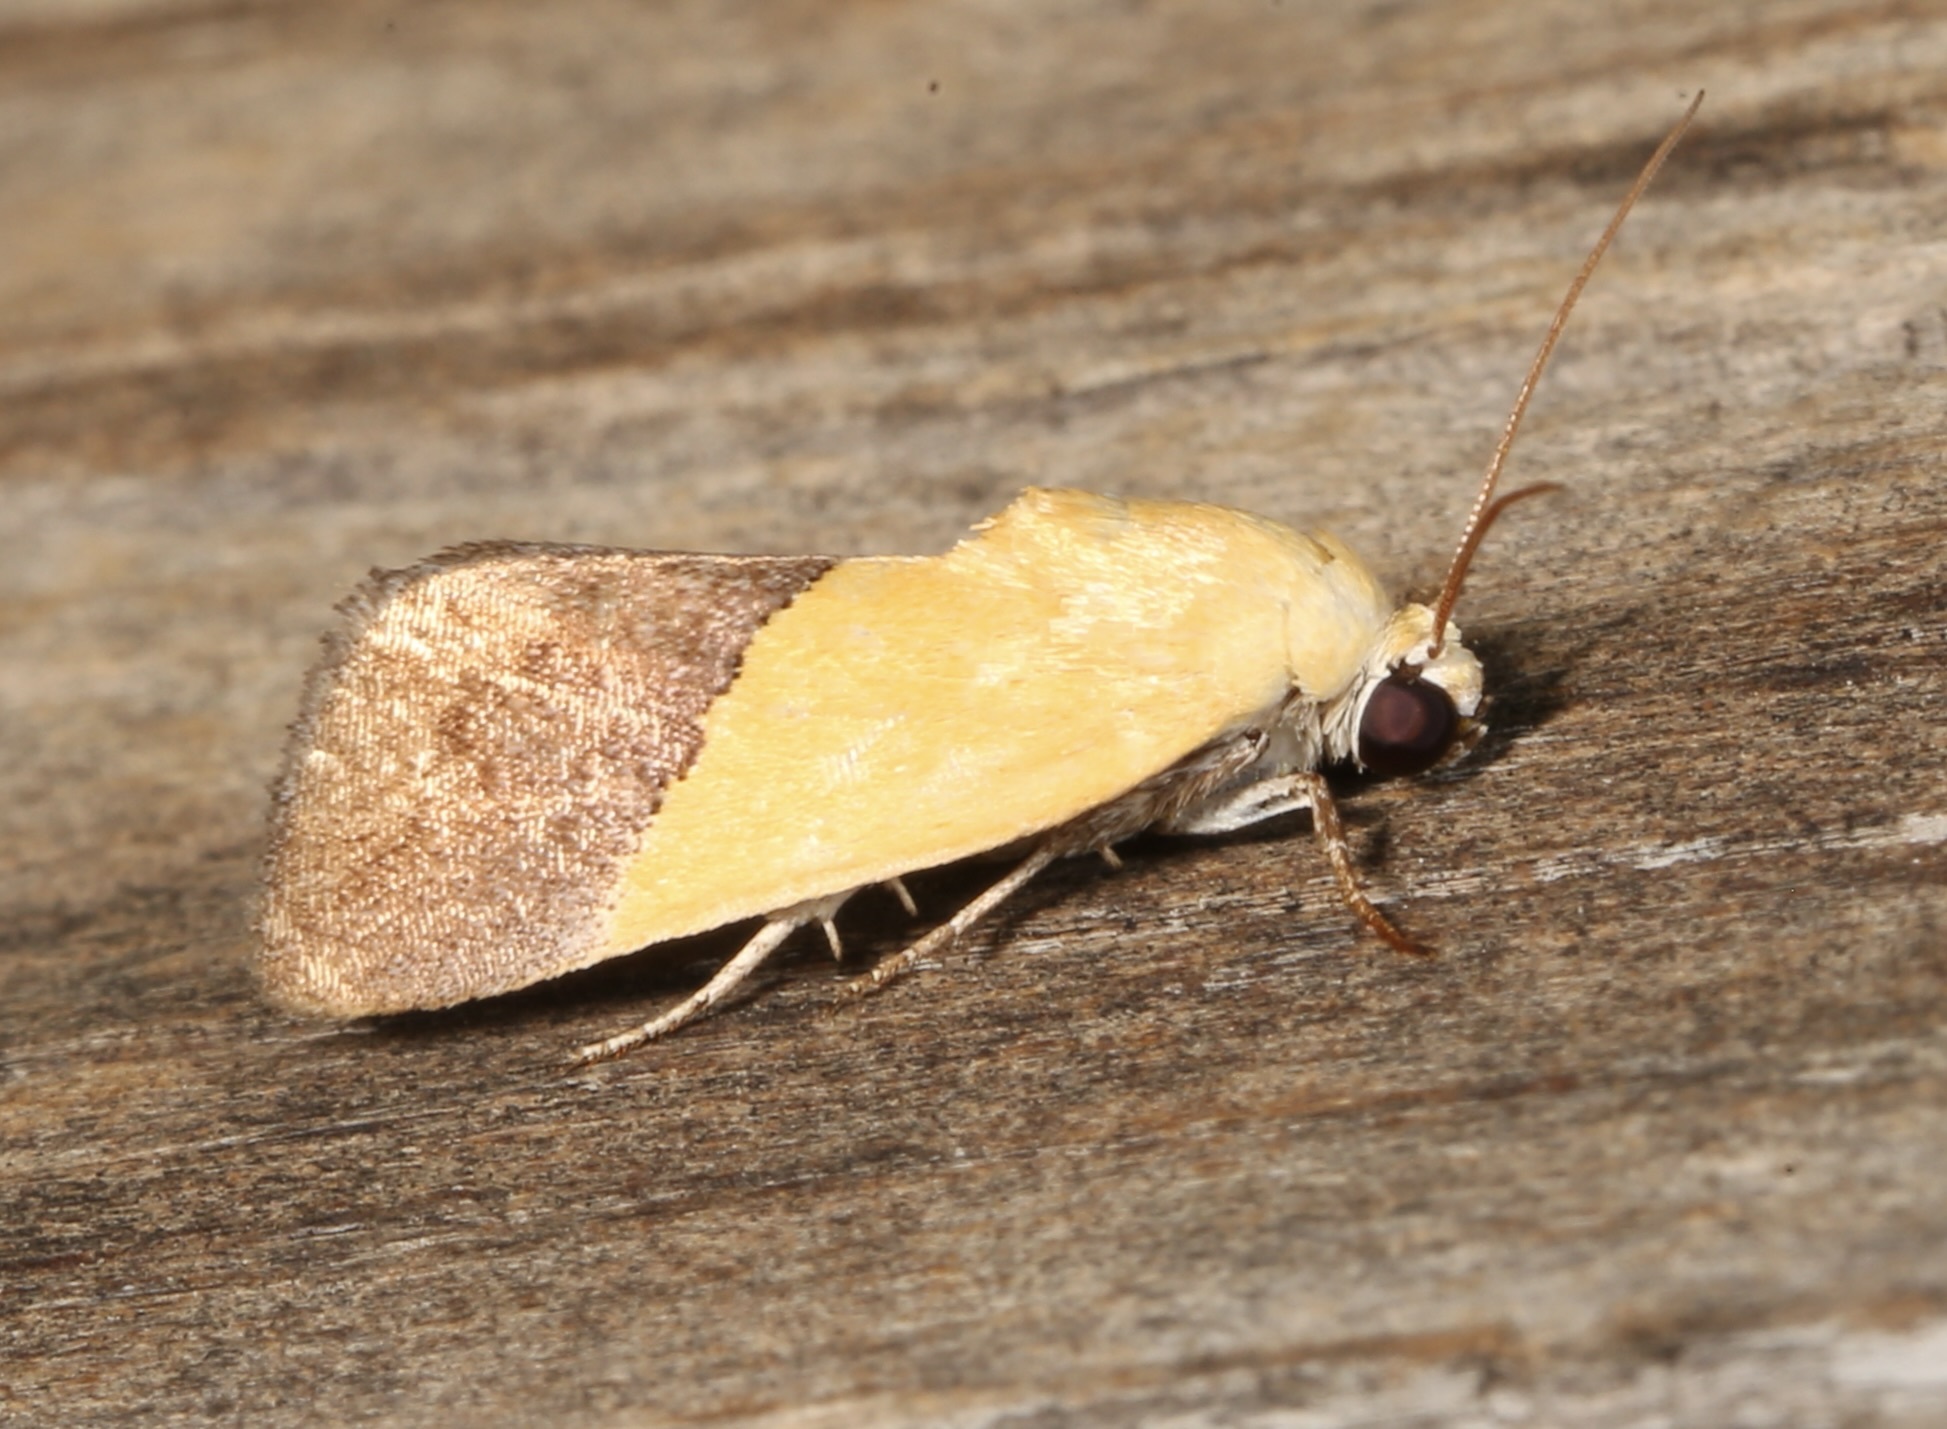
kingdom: Animalia
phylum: Arthropoda
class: Insecta
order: Lepidoptera
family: Noctuidae
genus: Acontia
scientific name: Acontia semiflava
